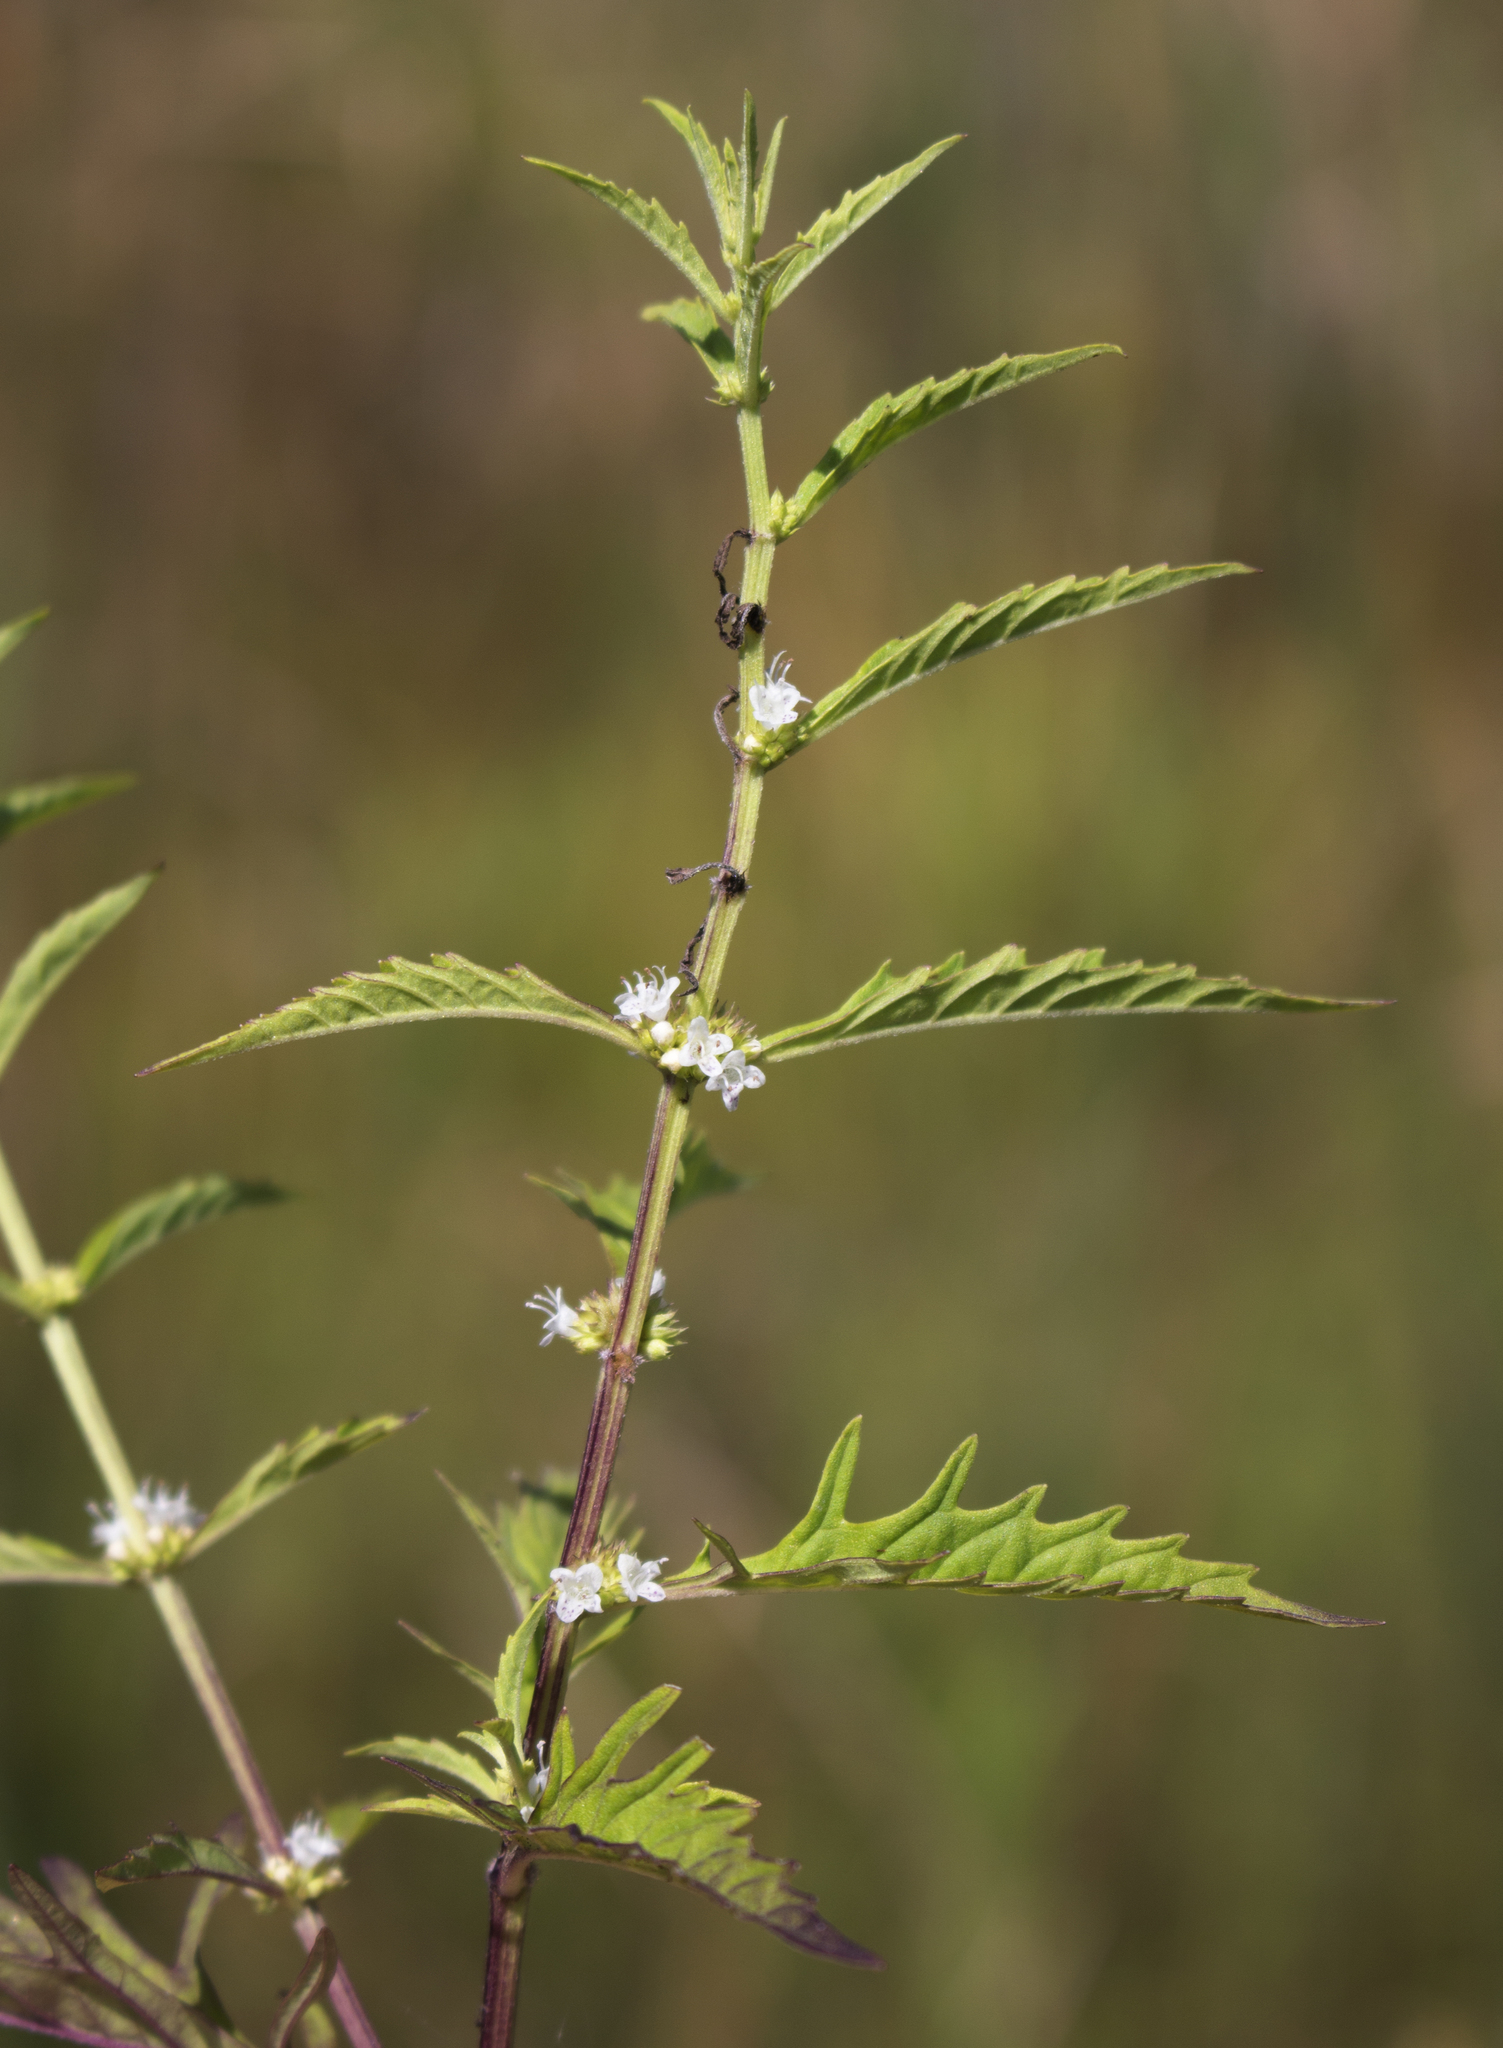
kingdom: Plantae
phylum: Tracheophyta
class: Magnoliopsida
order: Lamiales
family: Lamiaceae
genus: Lycopus
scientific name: Lycopus americanus
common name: American bugleweed
